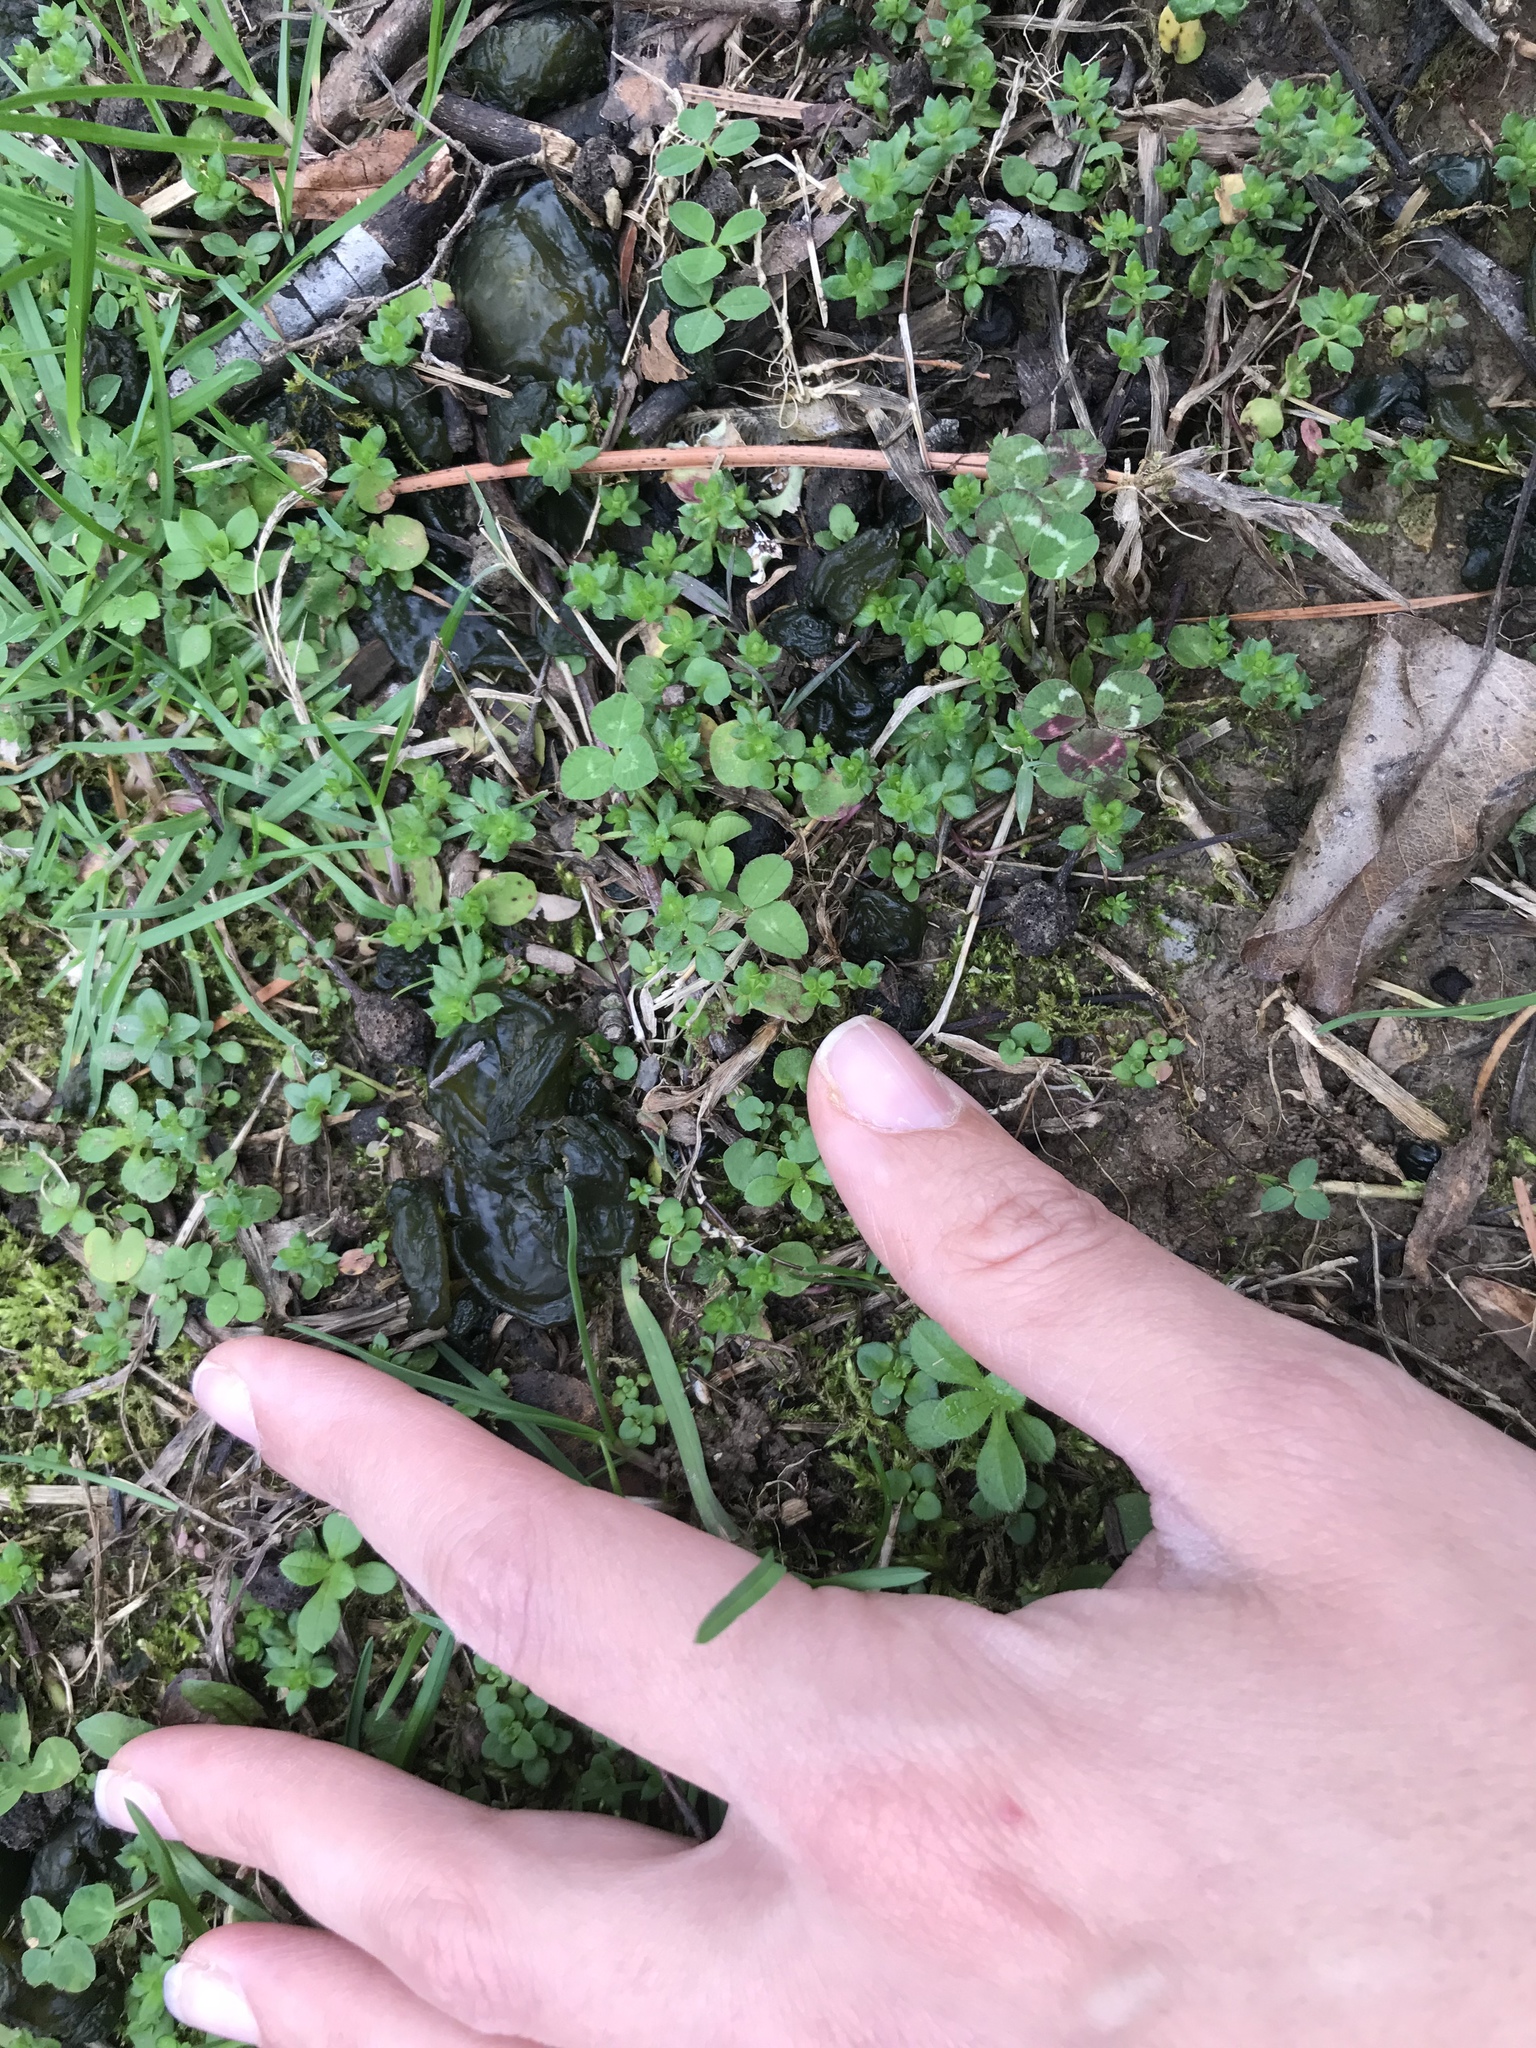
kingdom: Bacteria
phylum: Cyanobacteria
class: Cyanobacteriia
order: Cyanobacteriales
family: Nostocaceae
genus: Nostoc
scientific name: Nostoc commune
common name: Star jelly
